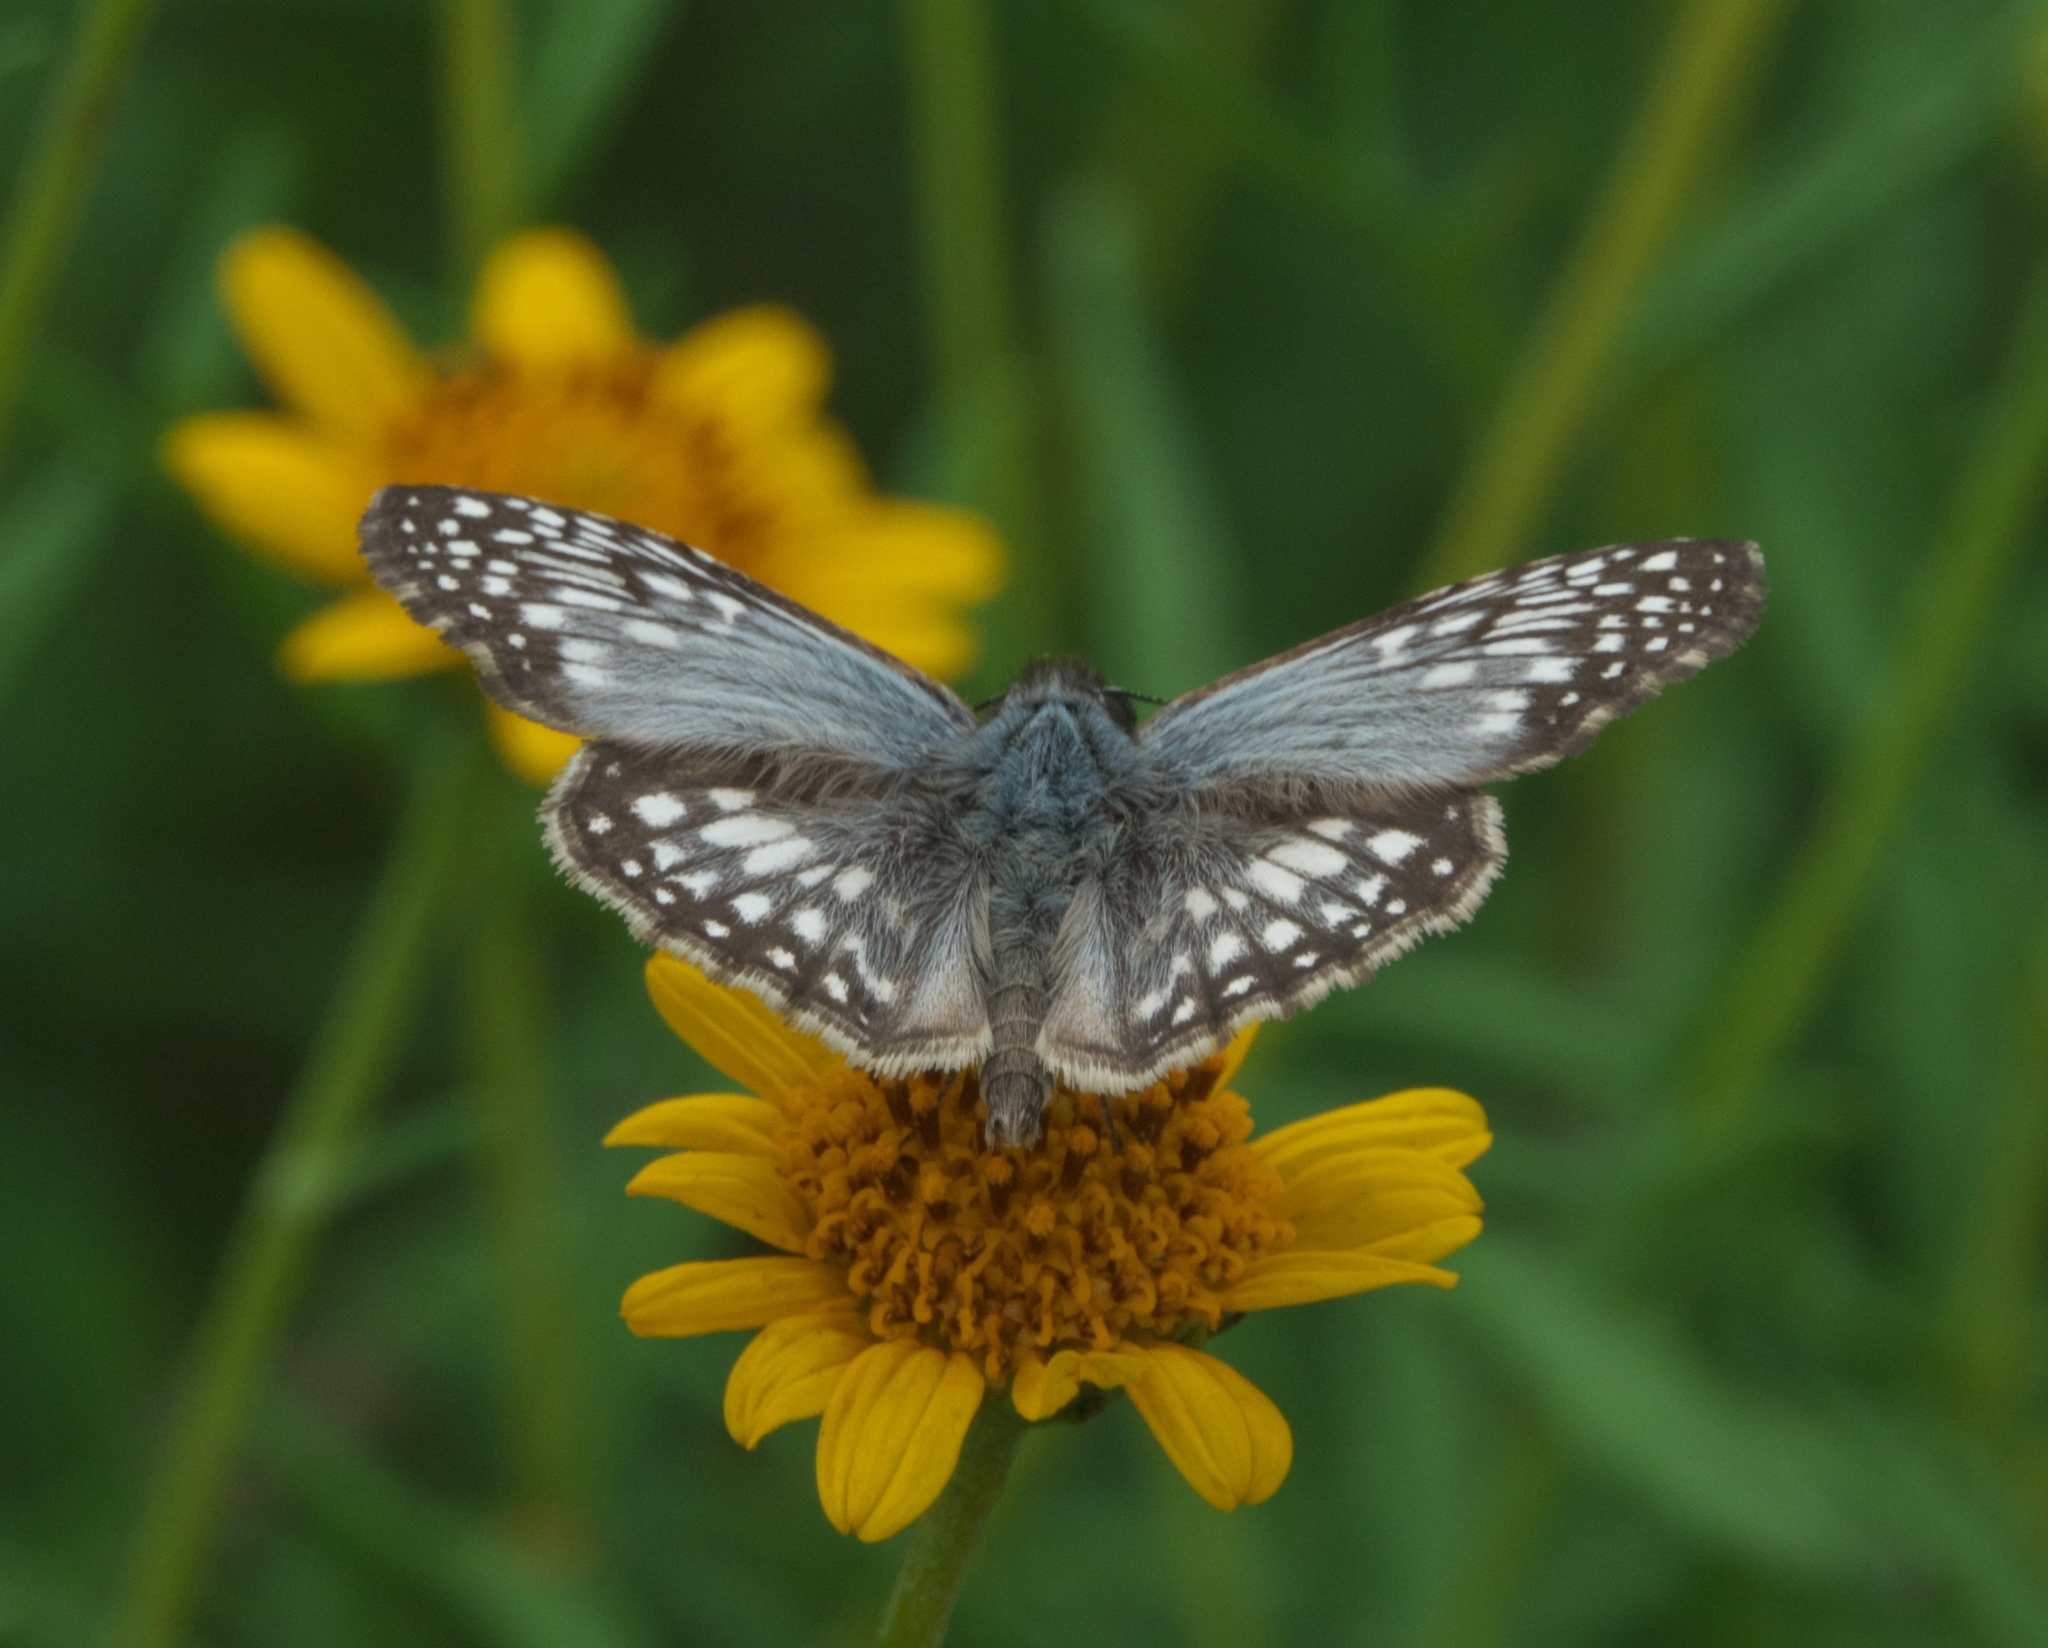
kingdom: Animalia
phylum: Arthropoda
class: Insecta
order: Lepidoptera
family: Hesperiidae
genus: Pyrgus
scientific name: Pyrgus oileus
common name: Tropical checkered-skipper
